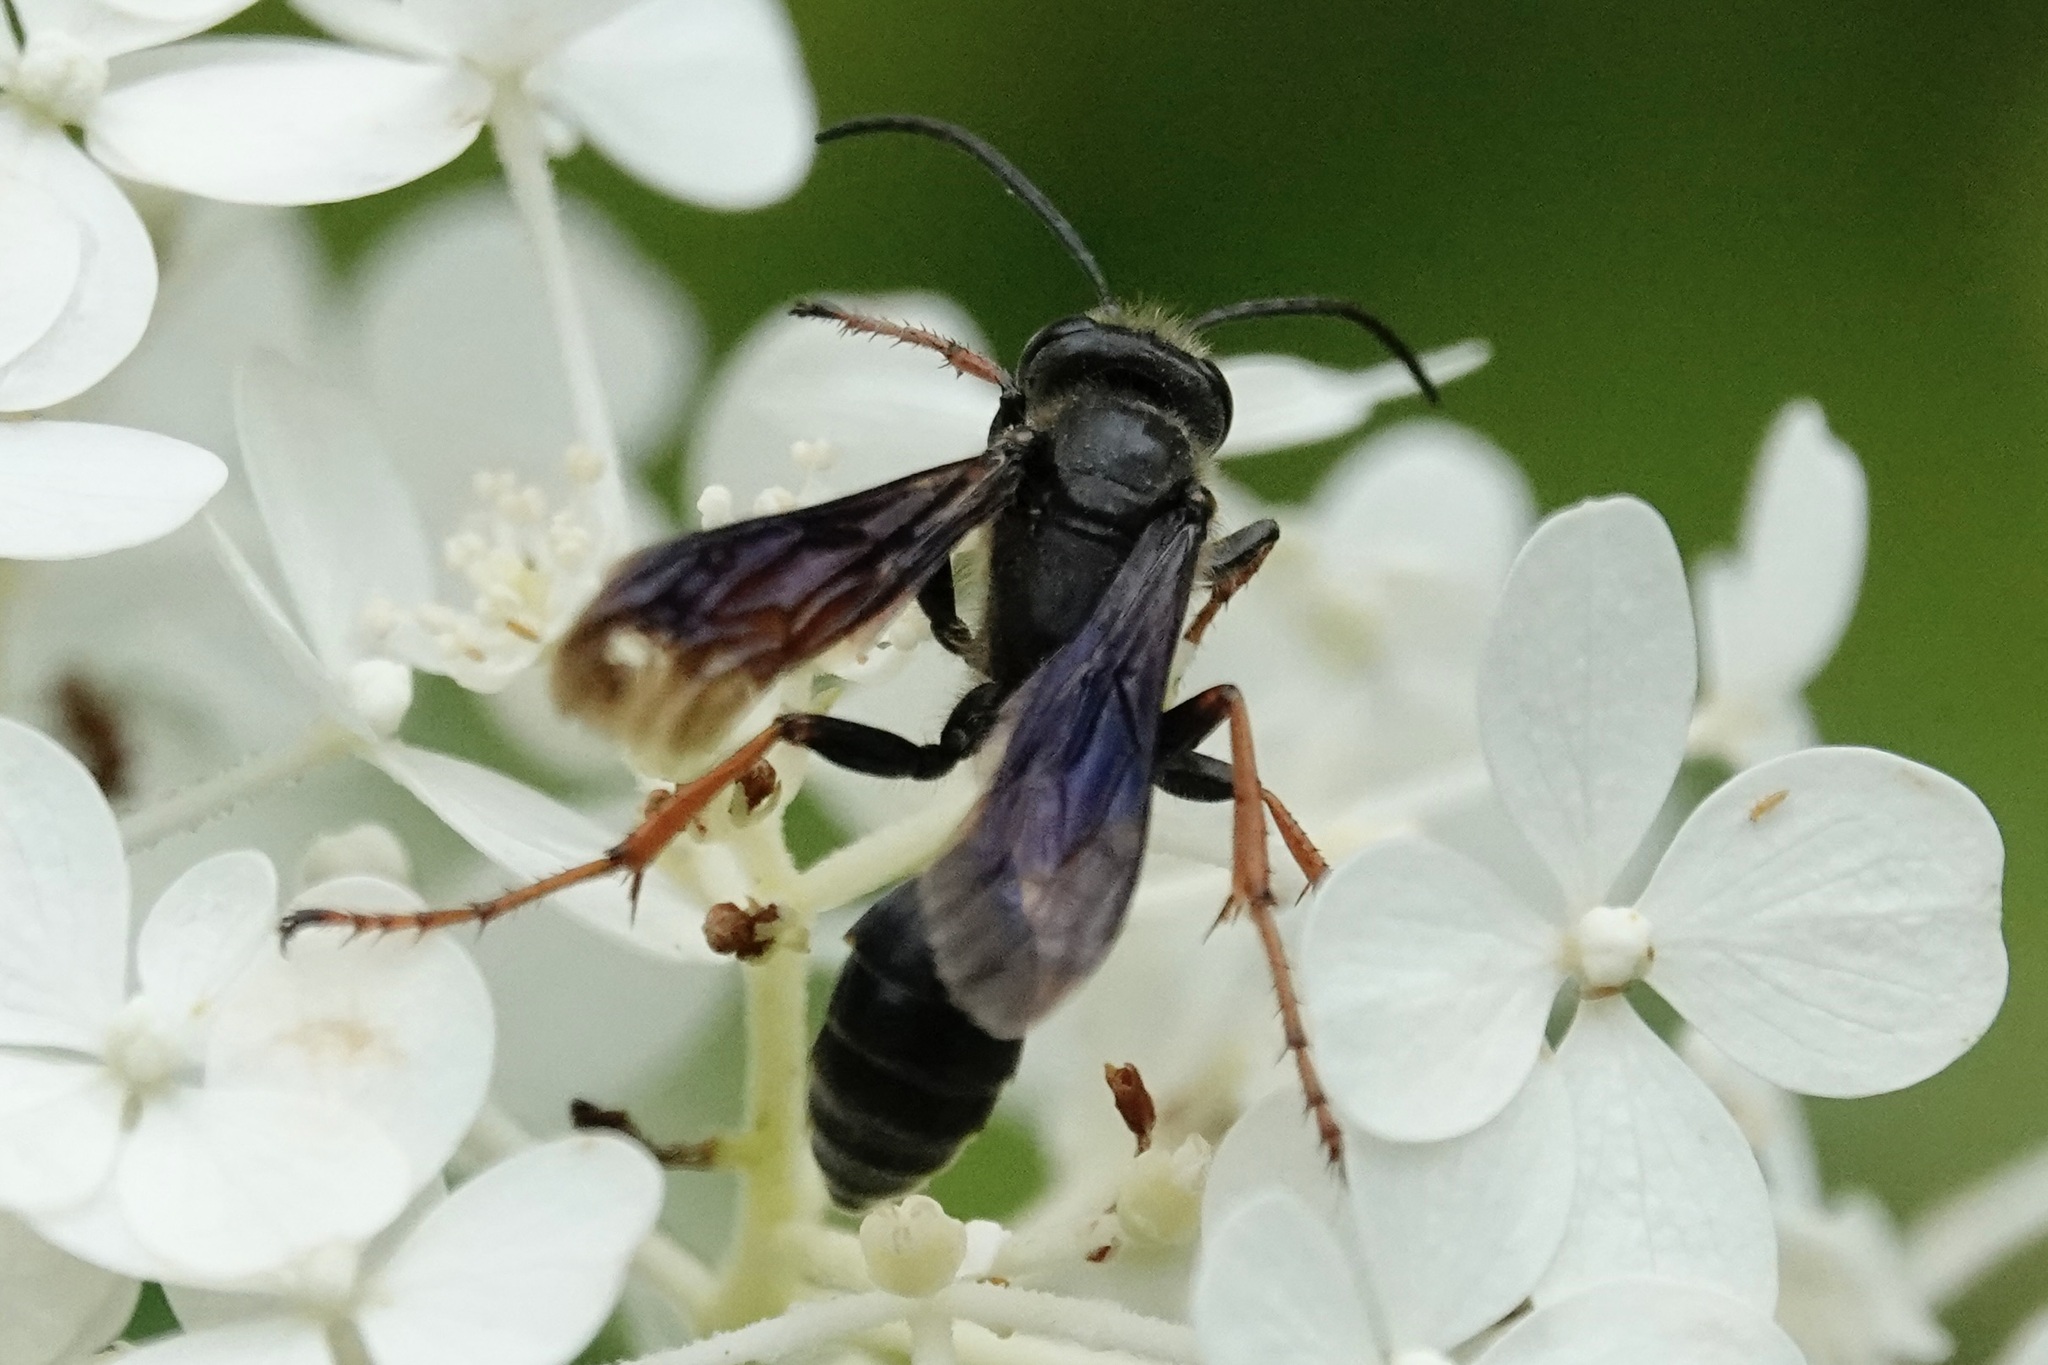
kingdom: Animalia
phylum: Arthropoda
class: Insecta
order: Hymenoptera
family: Sphecidae
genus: Isodontia
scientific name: Isodontia auripes
